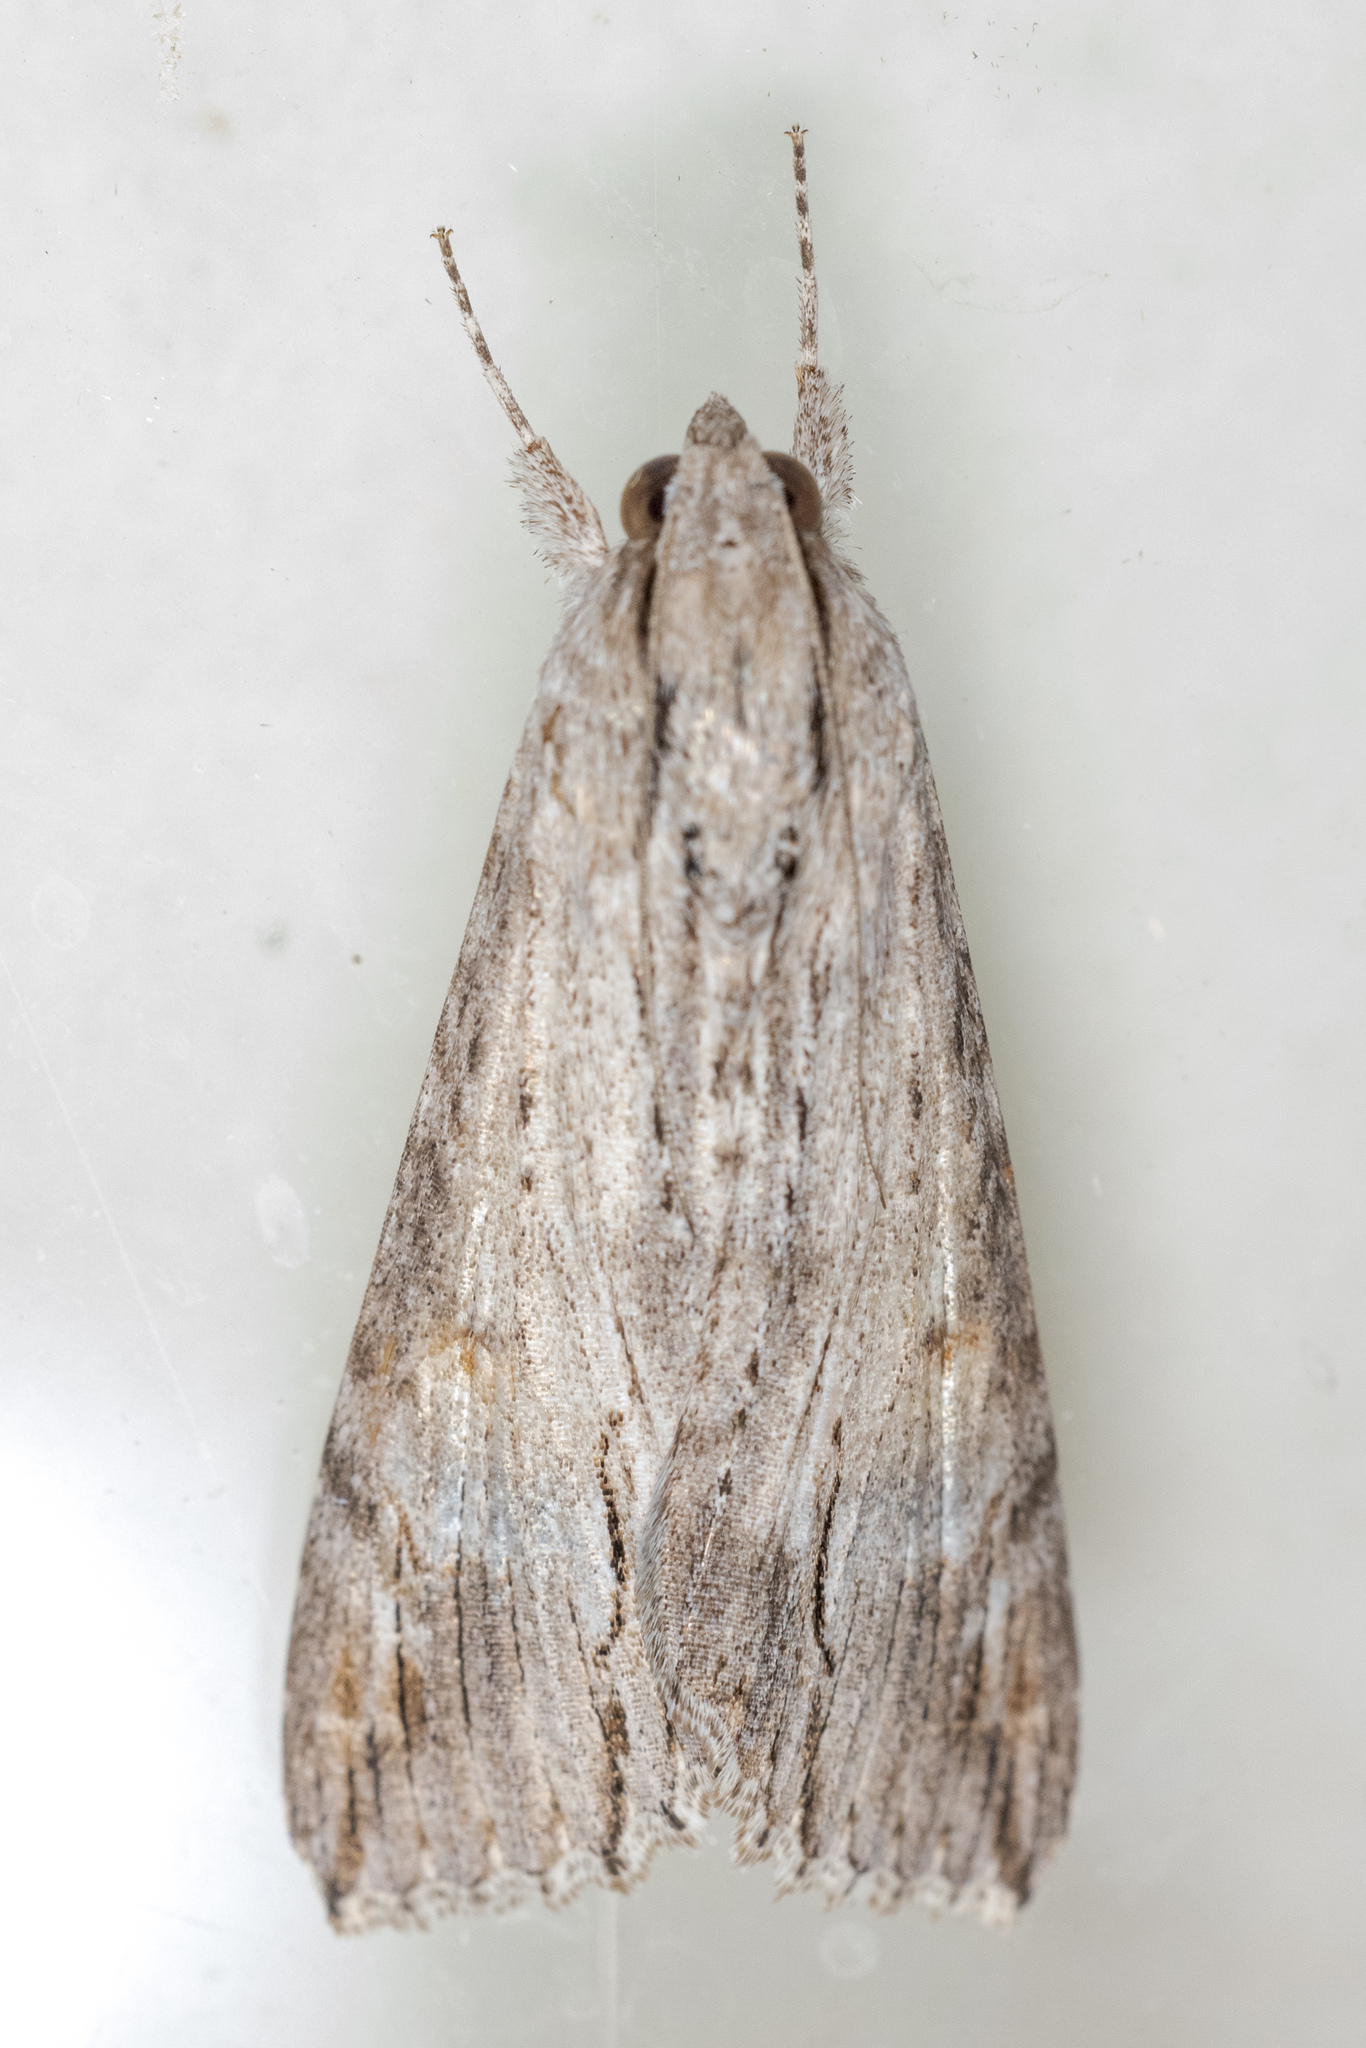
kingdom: Animalia
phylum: Arthropoda
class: Insecta
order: Lepidoptera
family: Erebidae
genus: Melipotis
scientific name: Melipotis acontioides
